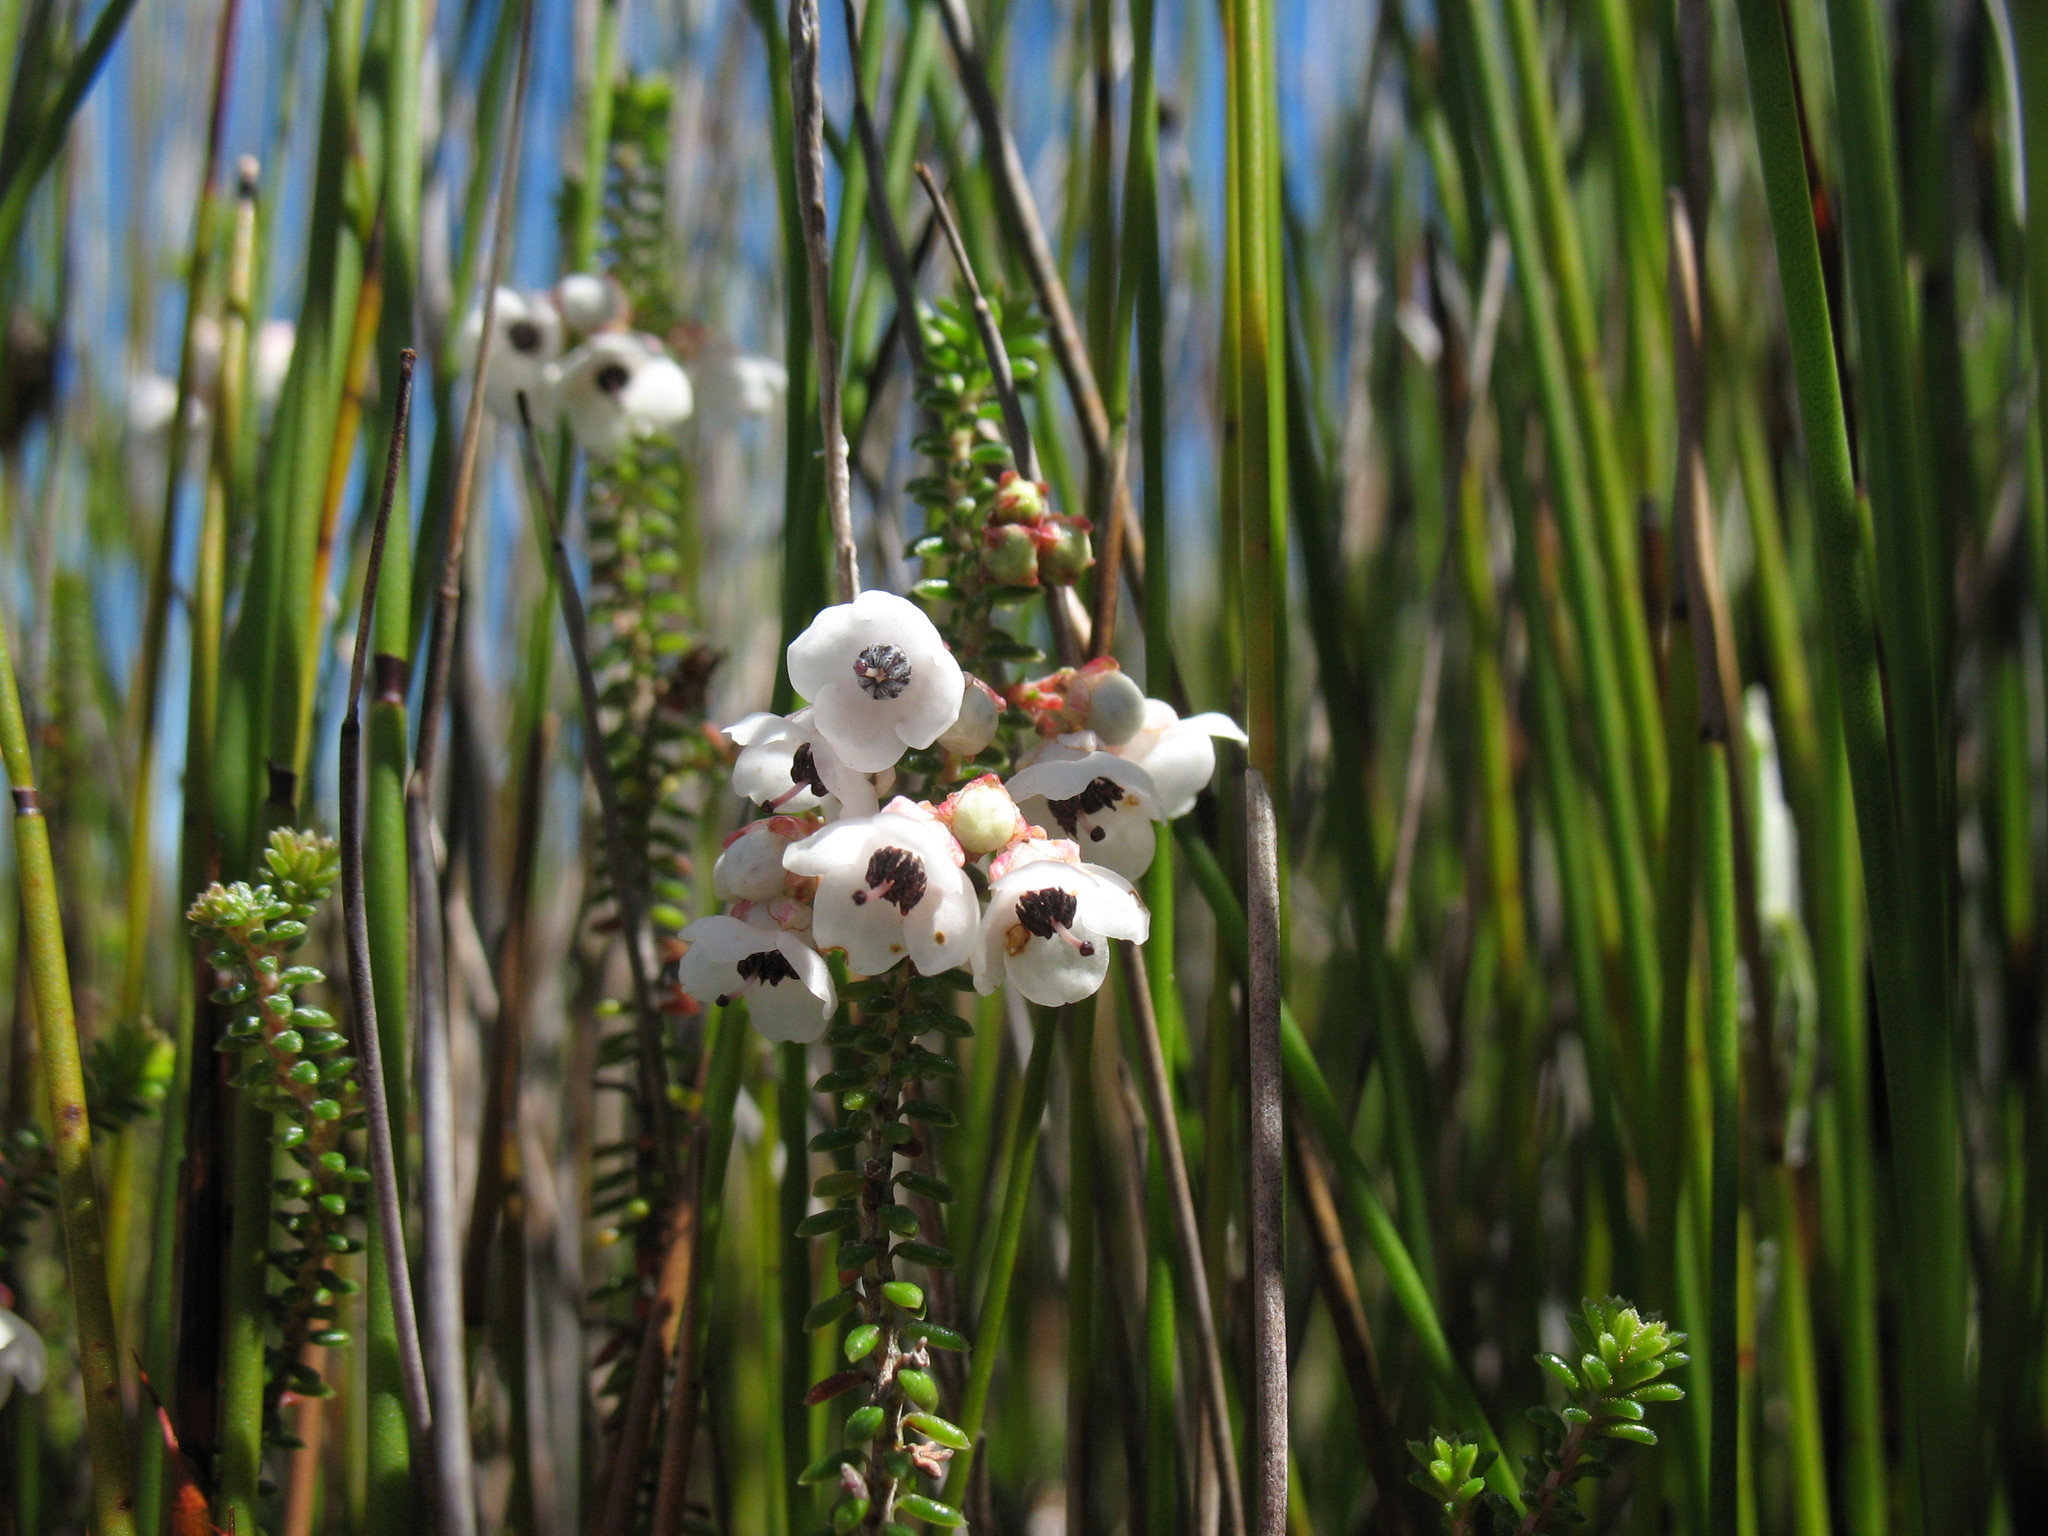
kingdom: Plantae
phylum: Tracheophyta
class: Magnoliopsida
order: Ericales
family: Ericaceae
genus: Erica
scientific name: Erica corydalis
